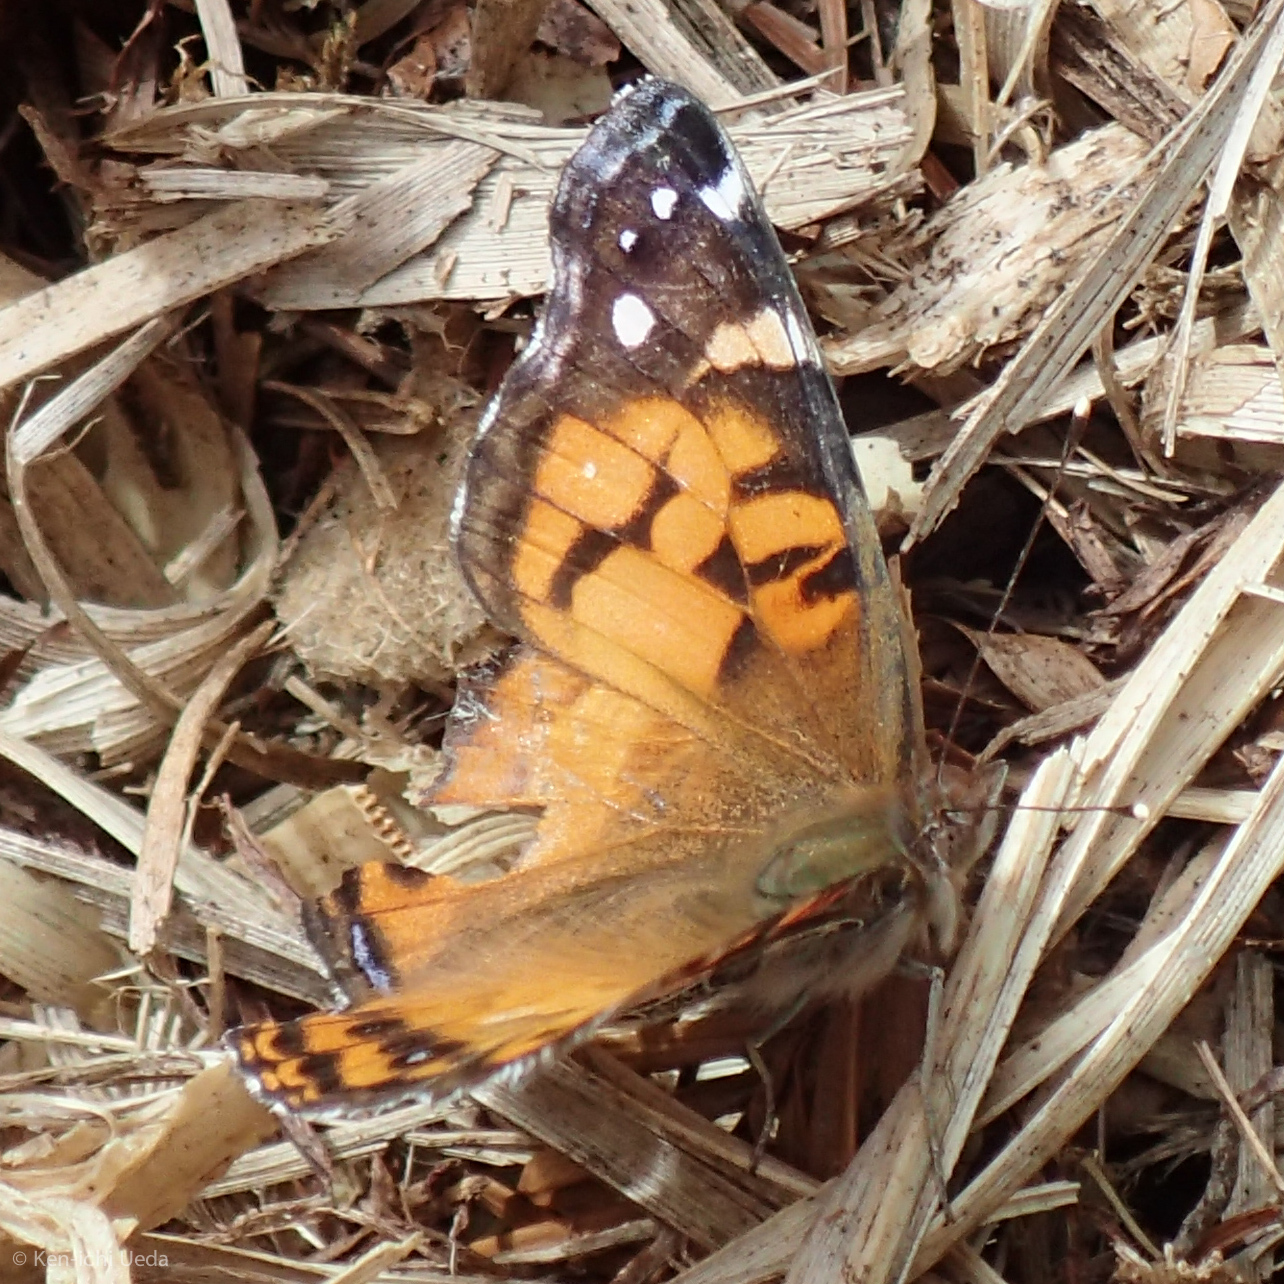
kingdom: Animalia
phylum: Arthropoda
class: Insecta
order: Lepidoptera
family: Nymphalidae
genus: Vanessa
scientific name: Vanessa virginiensis
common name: American lady
